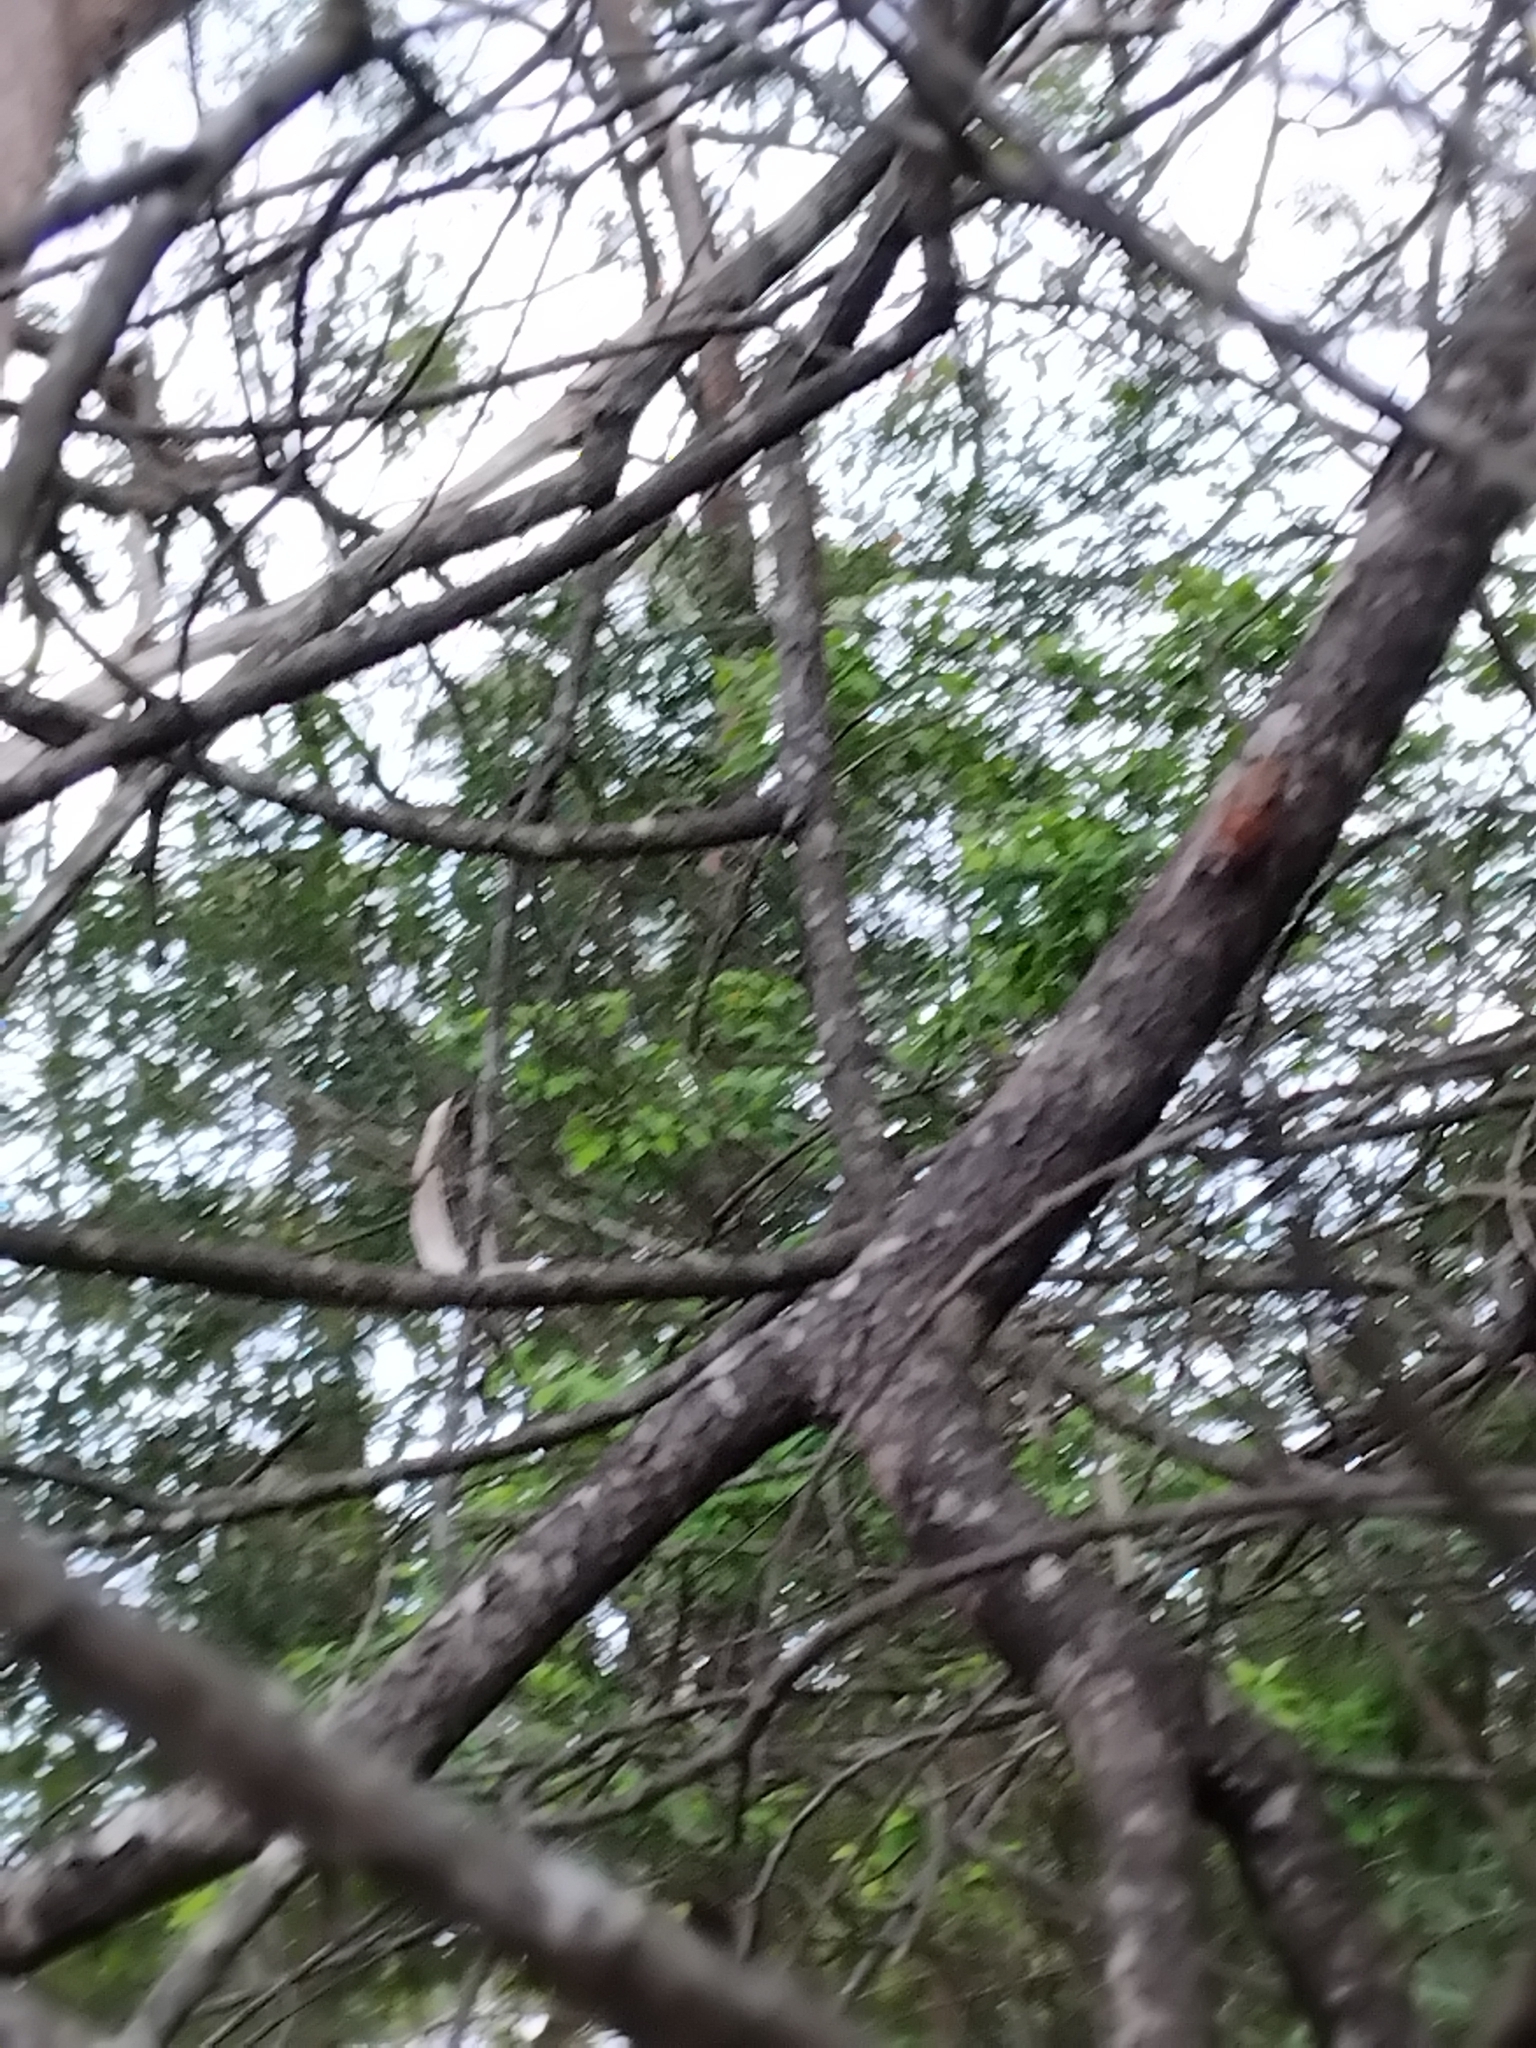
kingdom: Animalia
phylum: Arthropoda
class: Insecta
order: Hemiptera
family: Cicadidae
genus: Tamasa
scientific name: Tamasa tristigma
